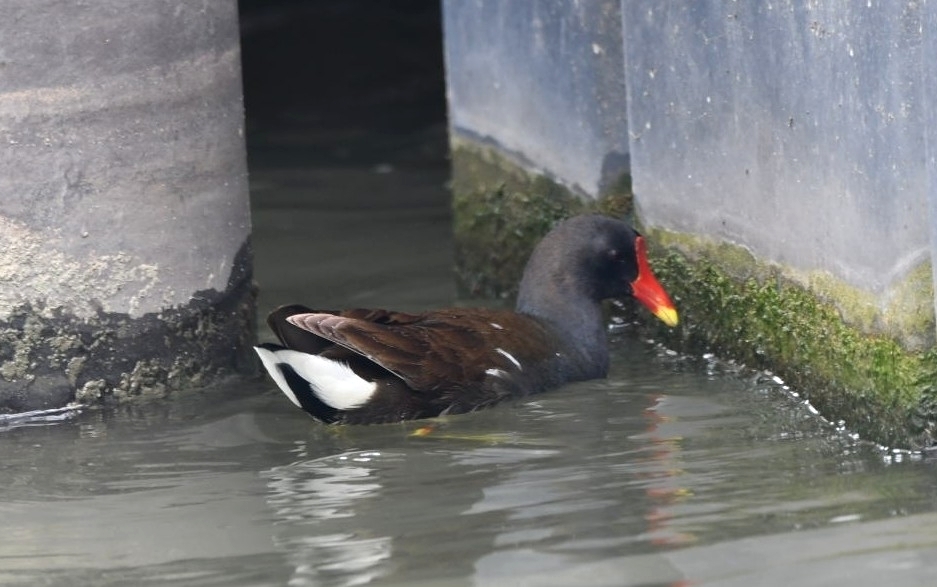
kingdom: Animalia
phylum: Chordata
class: Aves
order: Gruiformes
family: Rallidae
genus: Gallinula
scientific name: Gallinula chloropus
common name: Common moorhen
